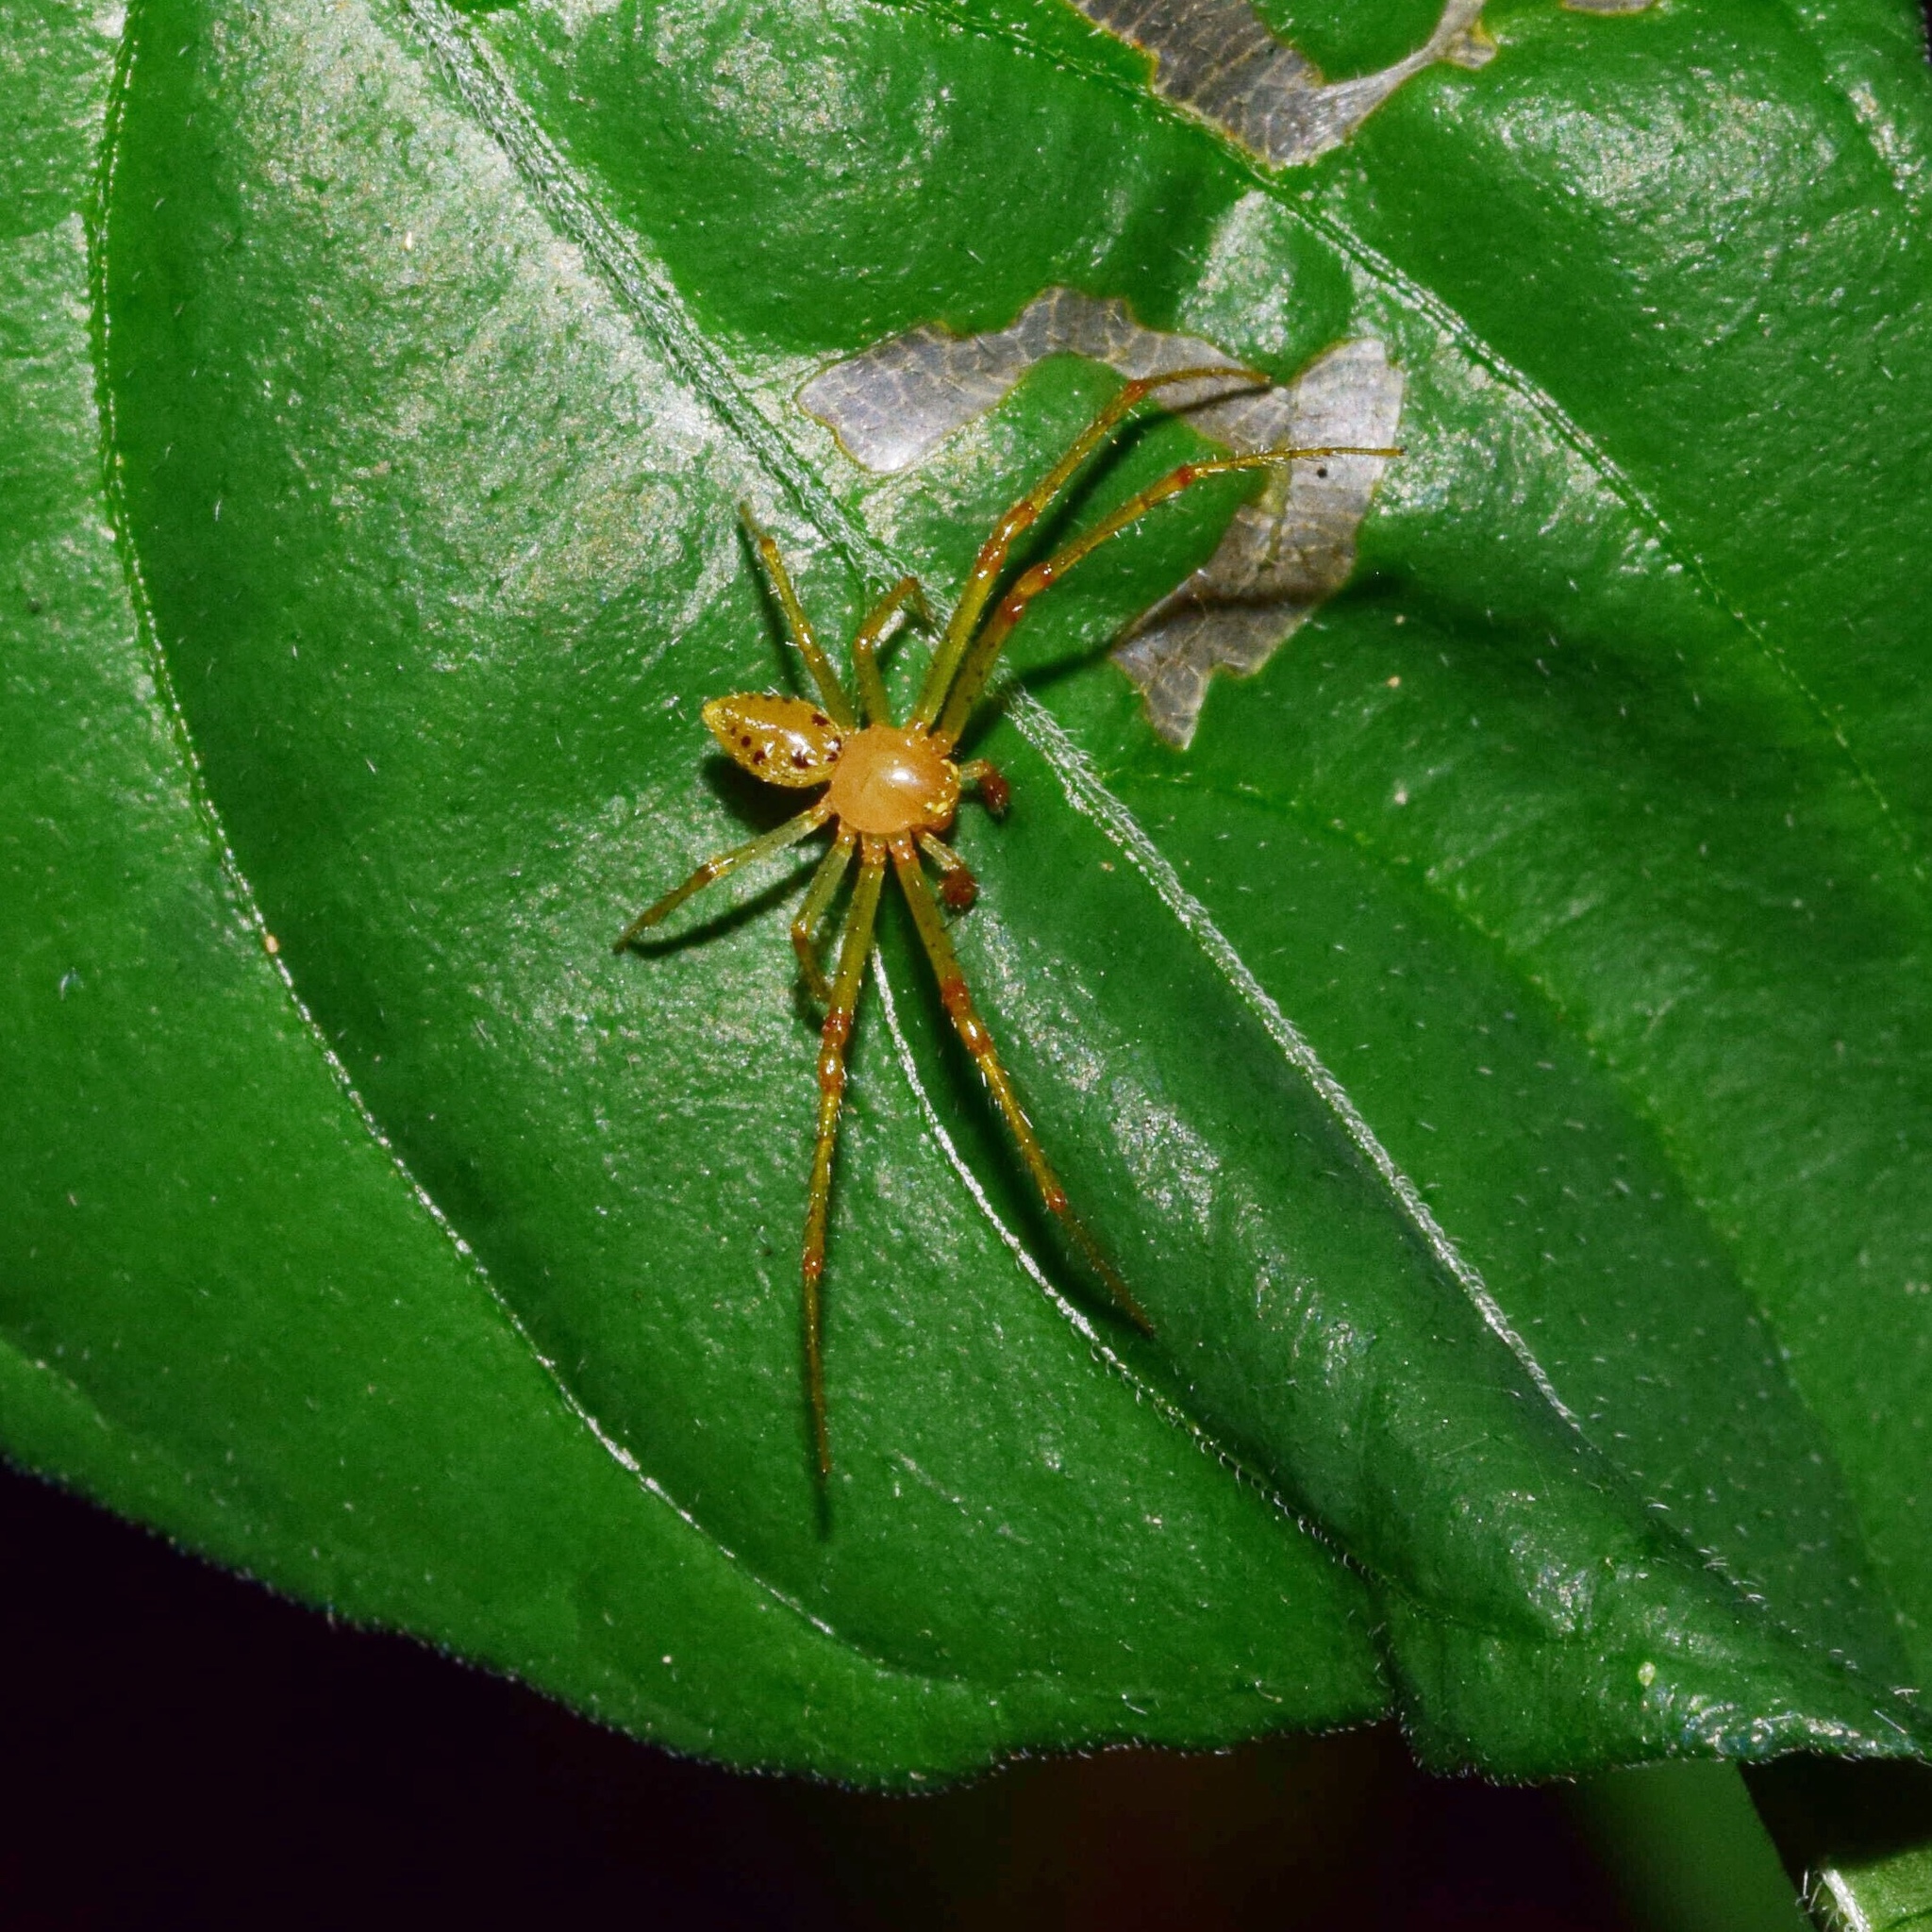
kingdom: Animalia
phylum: Arthropoda
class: Arachnida
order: Araneae
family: Thomisidae
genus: Diaea
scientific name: Diaea puncta
